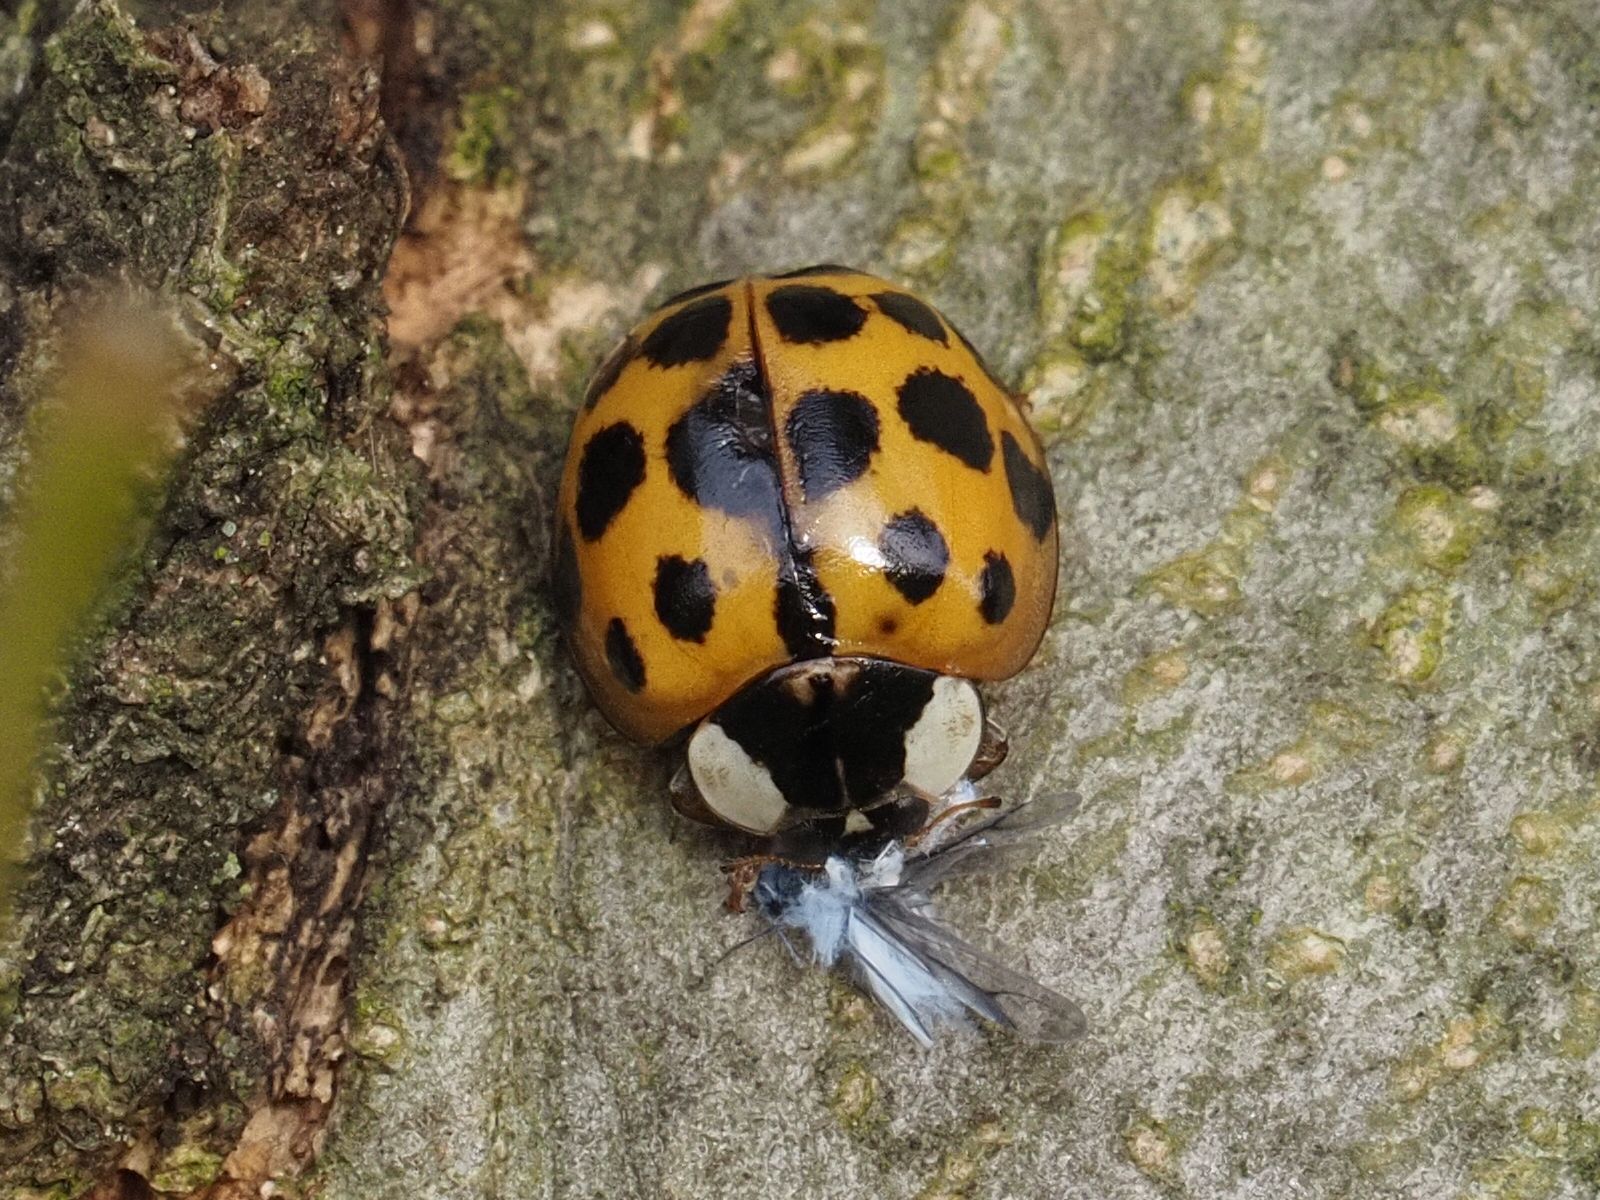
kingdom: Animalia
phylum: Arthropoda
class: Insecta
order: Coleoptera
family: Coccinellidae
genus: Harmonia
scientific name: Harmonia axyridis
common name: Harlequin ladybird
